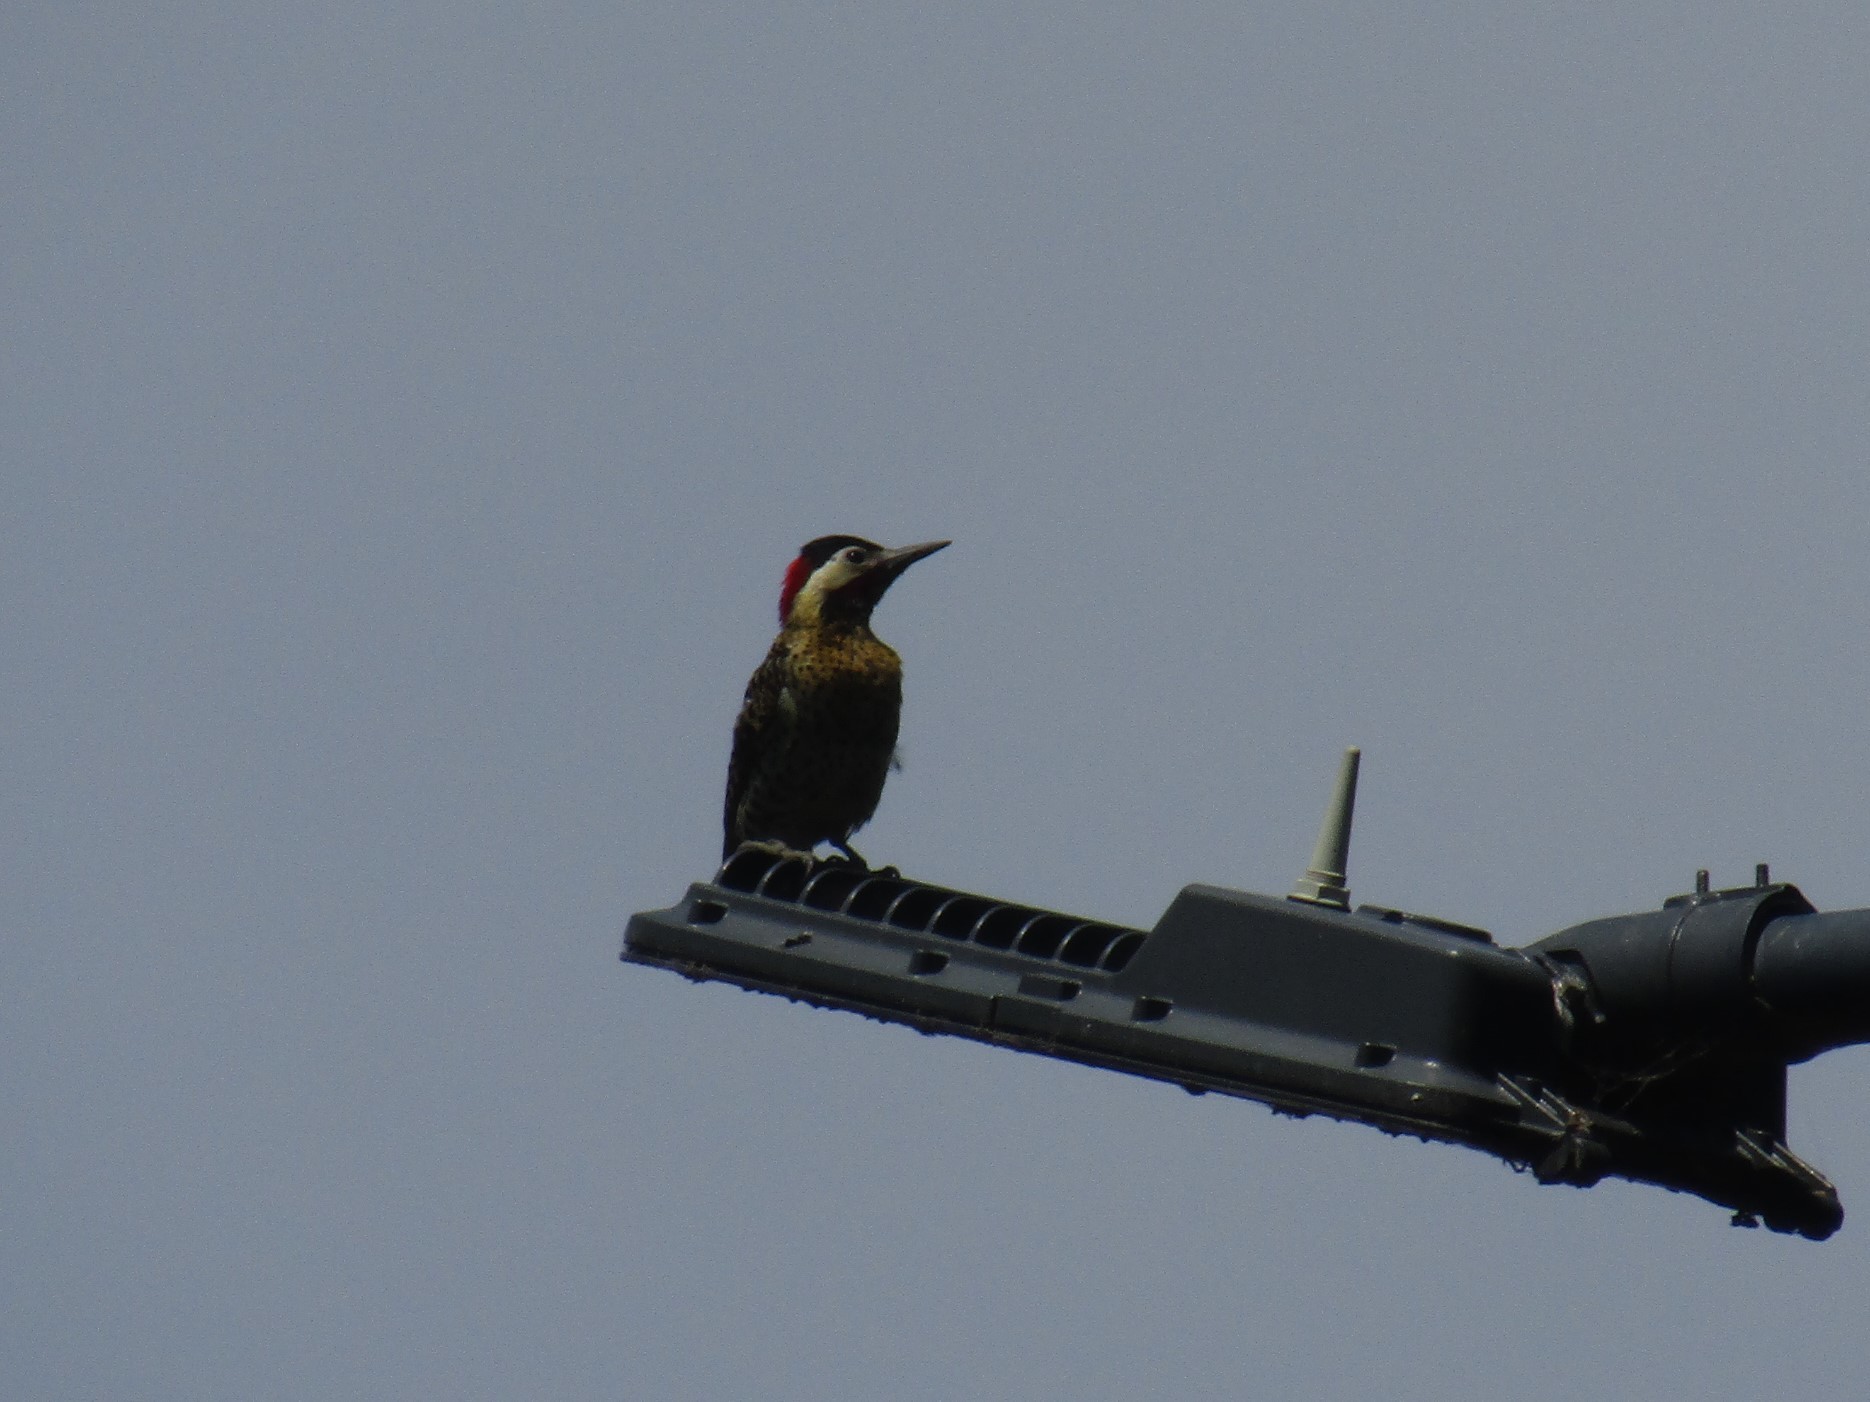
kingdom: Animalia
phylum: Chordata
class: Aves
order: Piciformes
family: Picidae
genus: Colaptes
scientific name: Colaptes melanochloros
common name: Green-barred woodpecker
